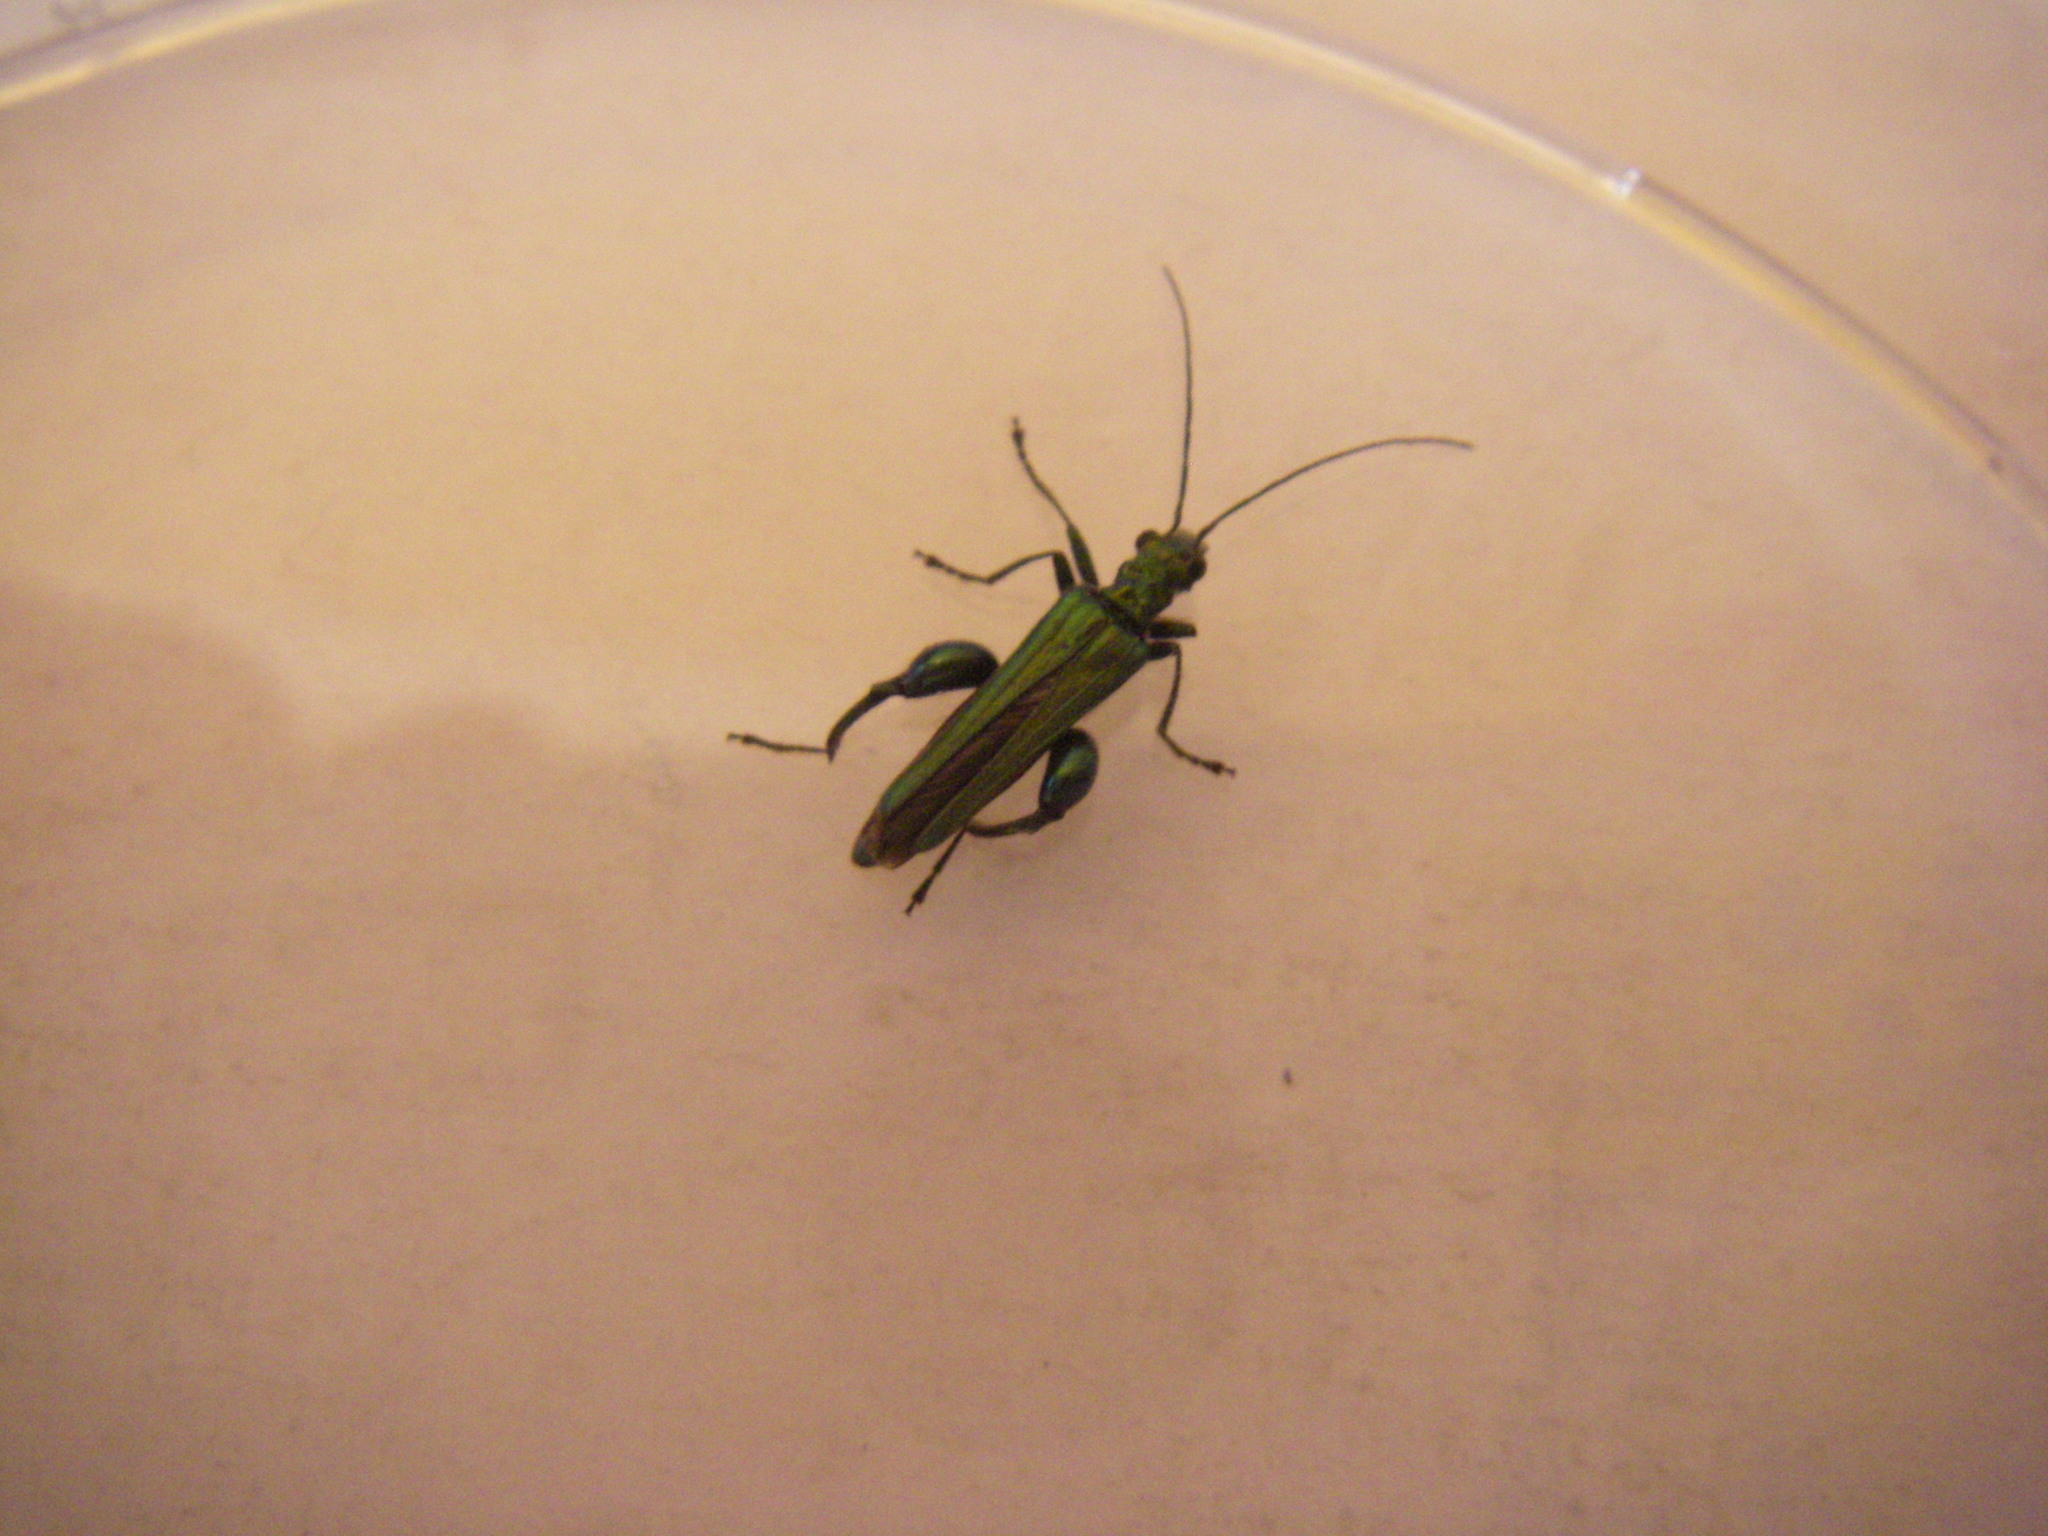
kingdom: Animalia
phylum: Arthropoda
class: Insecta
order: Coleoptera
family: Oedemeridae
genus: Oedemera
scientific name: Oedemera nobilis
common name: Swollen-thighed beetle
